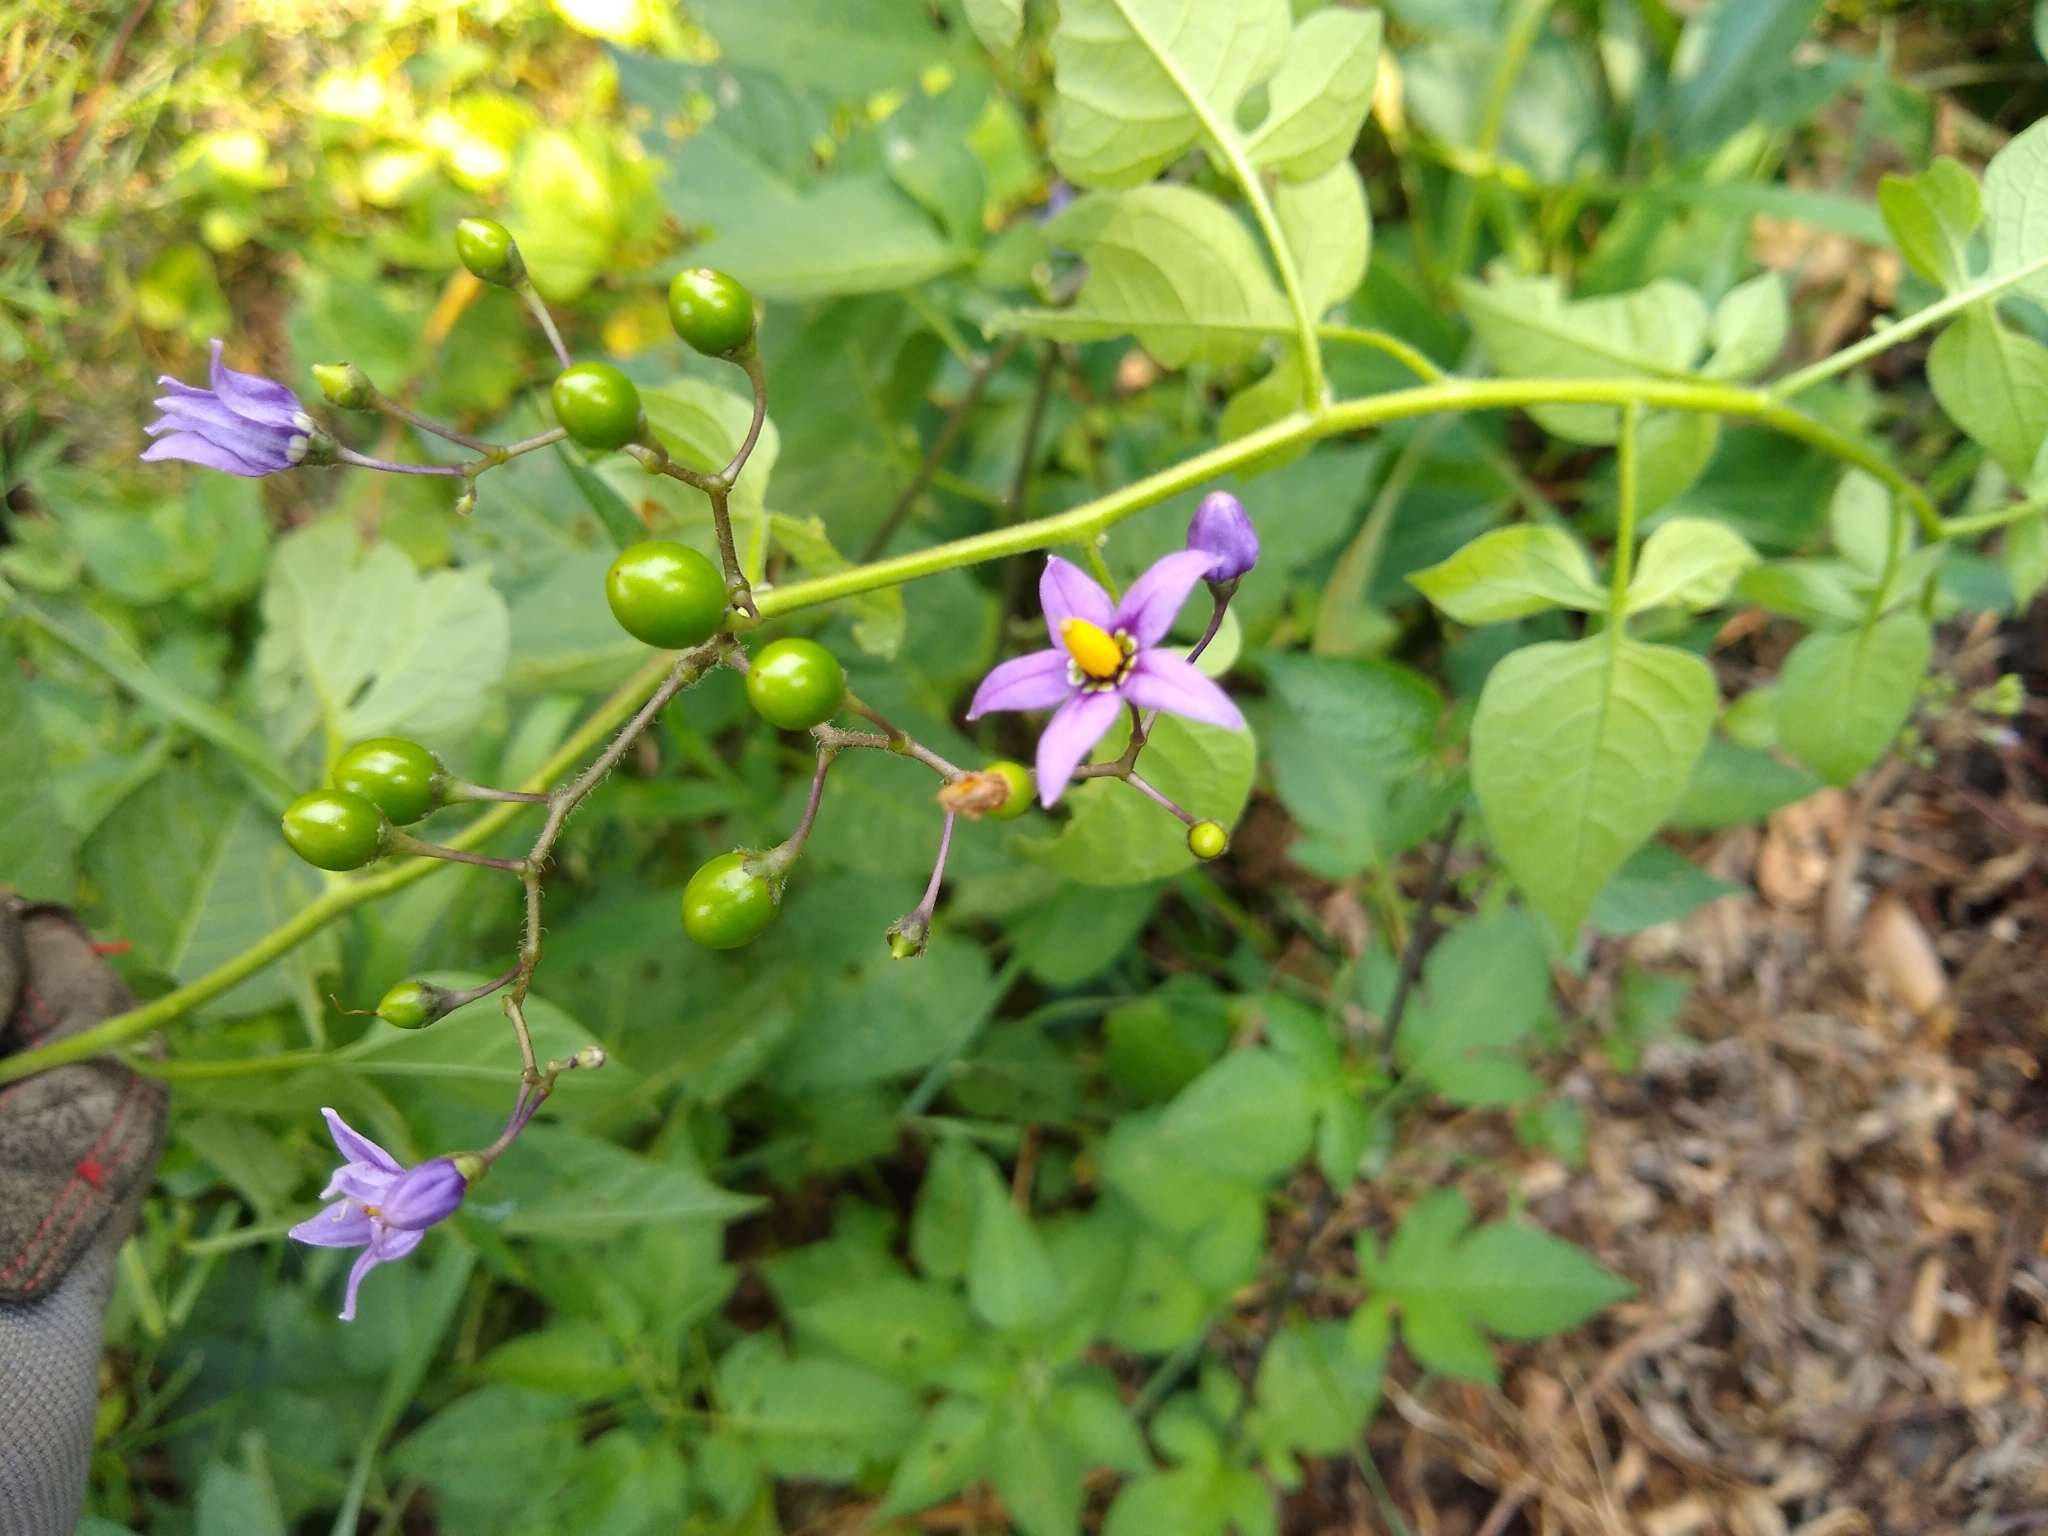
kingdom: Plantae
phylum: Tracheophyta
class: Magnoliopsida
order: Solanales
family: Solanaceae
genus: Solanum
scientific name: Solanum dulcamara
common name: Climbing nightshade
